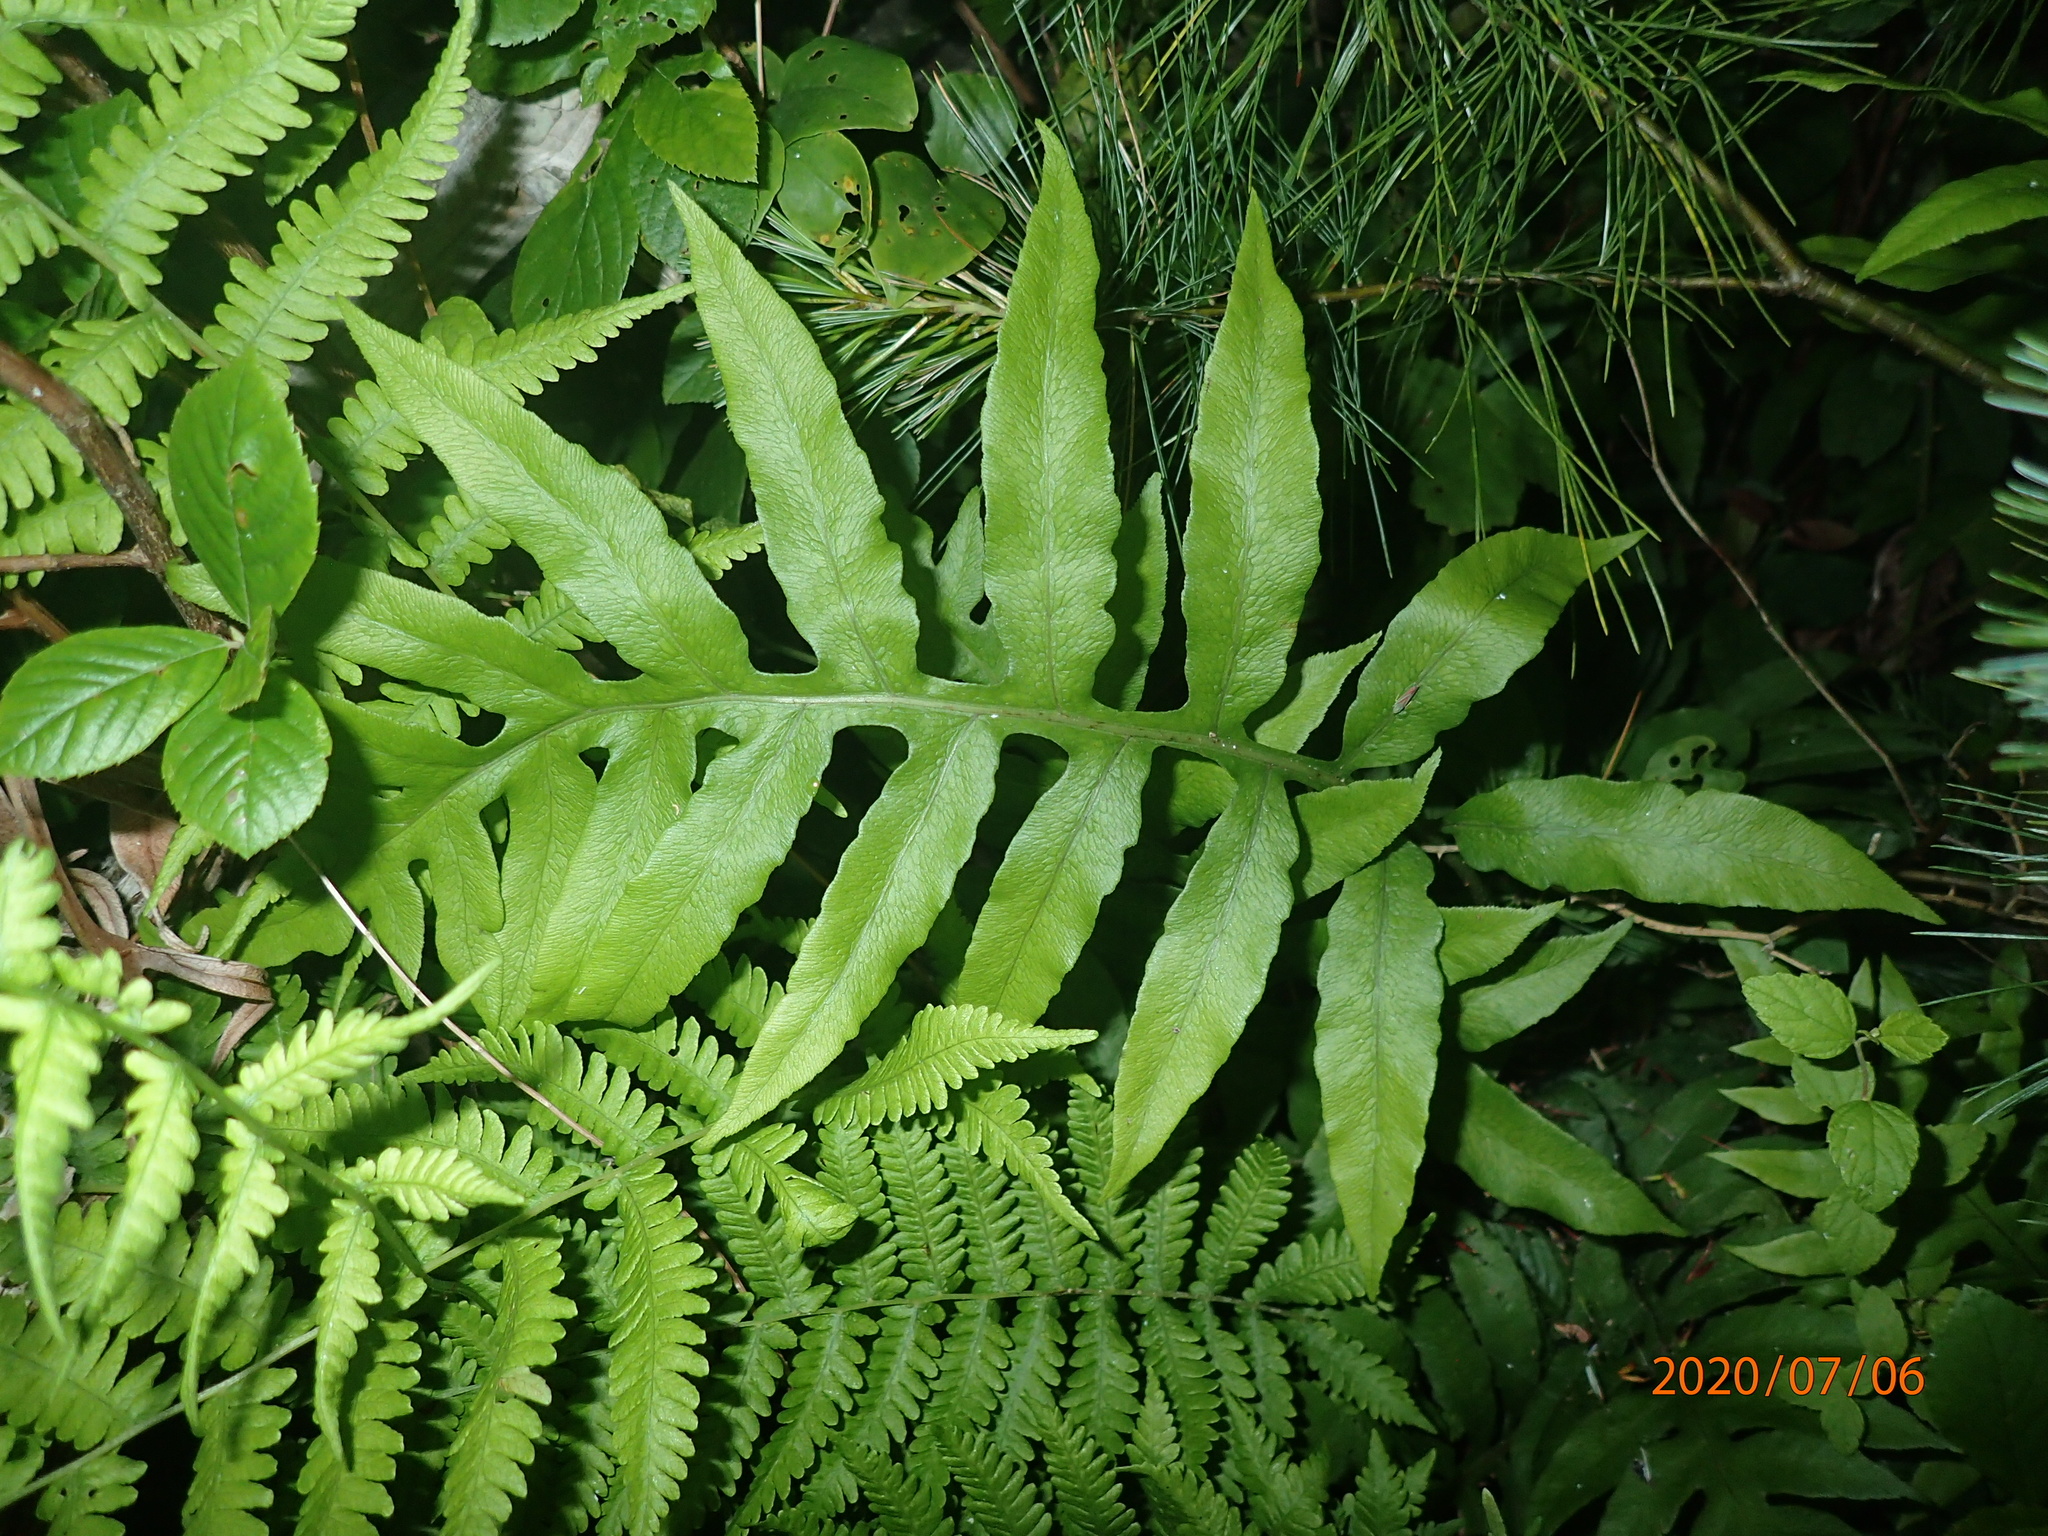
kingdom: Plantae
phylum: Tracheophyta
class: Polypodiopsida
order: Polypodiales
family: Blechnaceae
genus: Lorinseria
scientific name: Lorinseria areolata
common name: Dwarf chain fern
